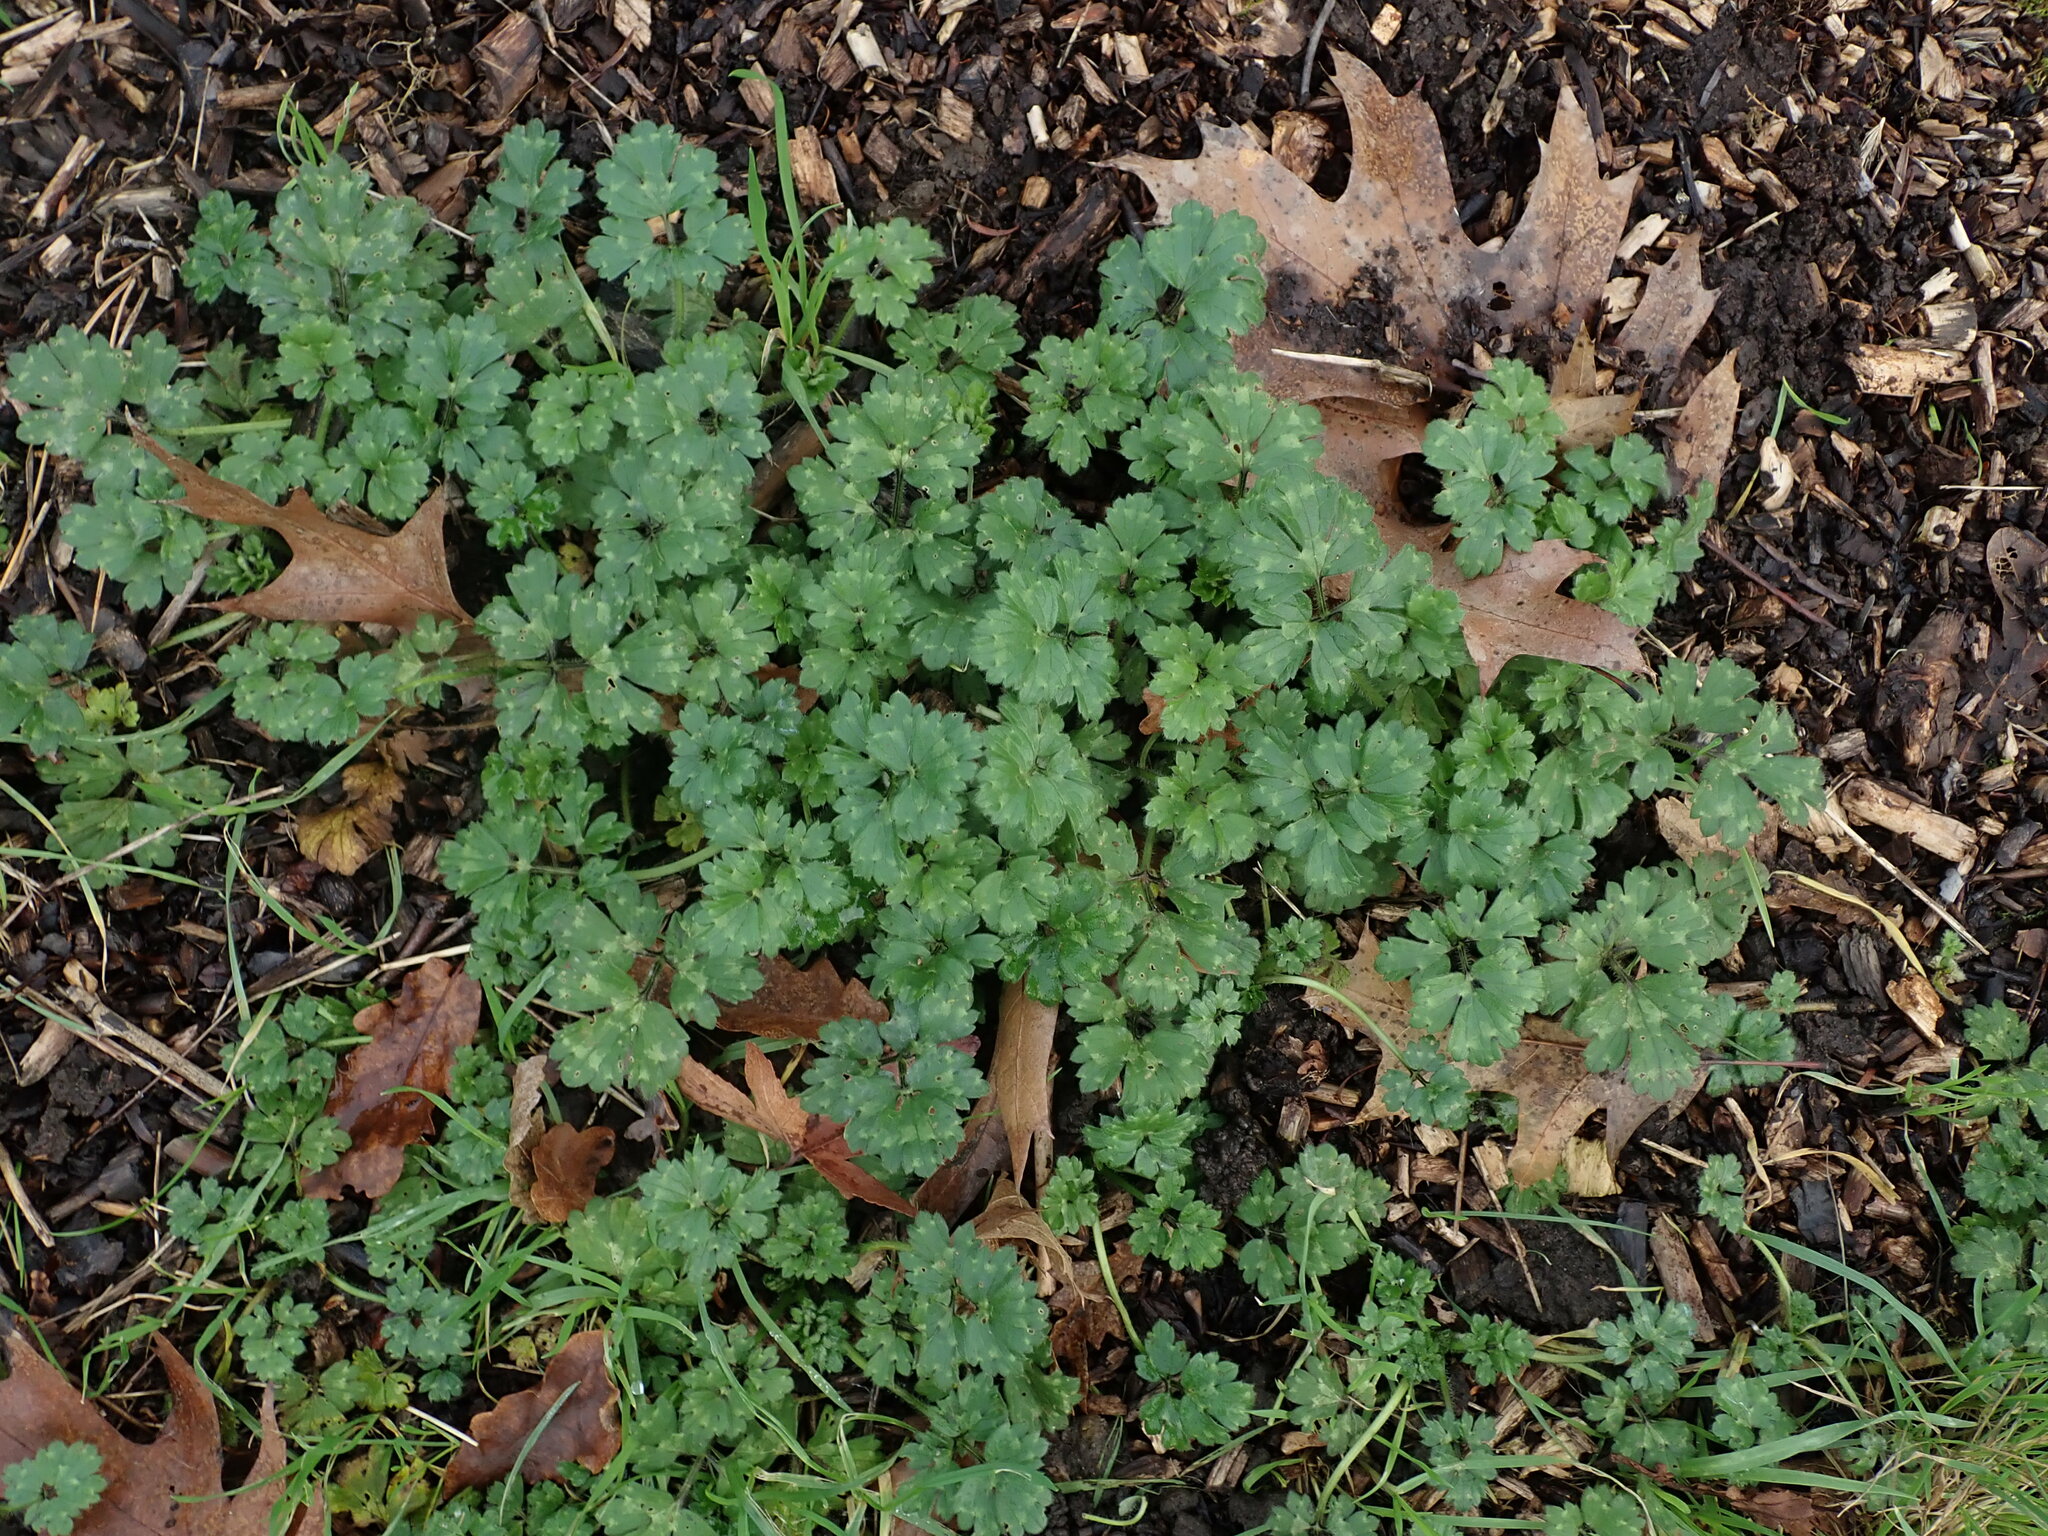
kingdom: Plantae
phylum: Tracheophyta
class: Magnoliopsida
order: Ranunculales
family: Ranunculaceae
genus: Ranunculus
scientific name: Ranunculus repens
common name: Creeping buttercup
